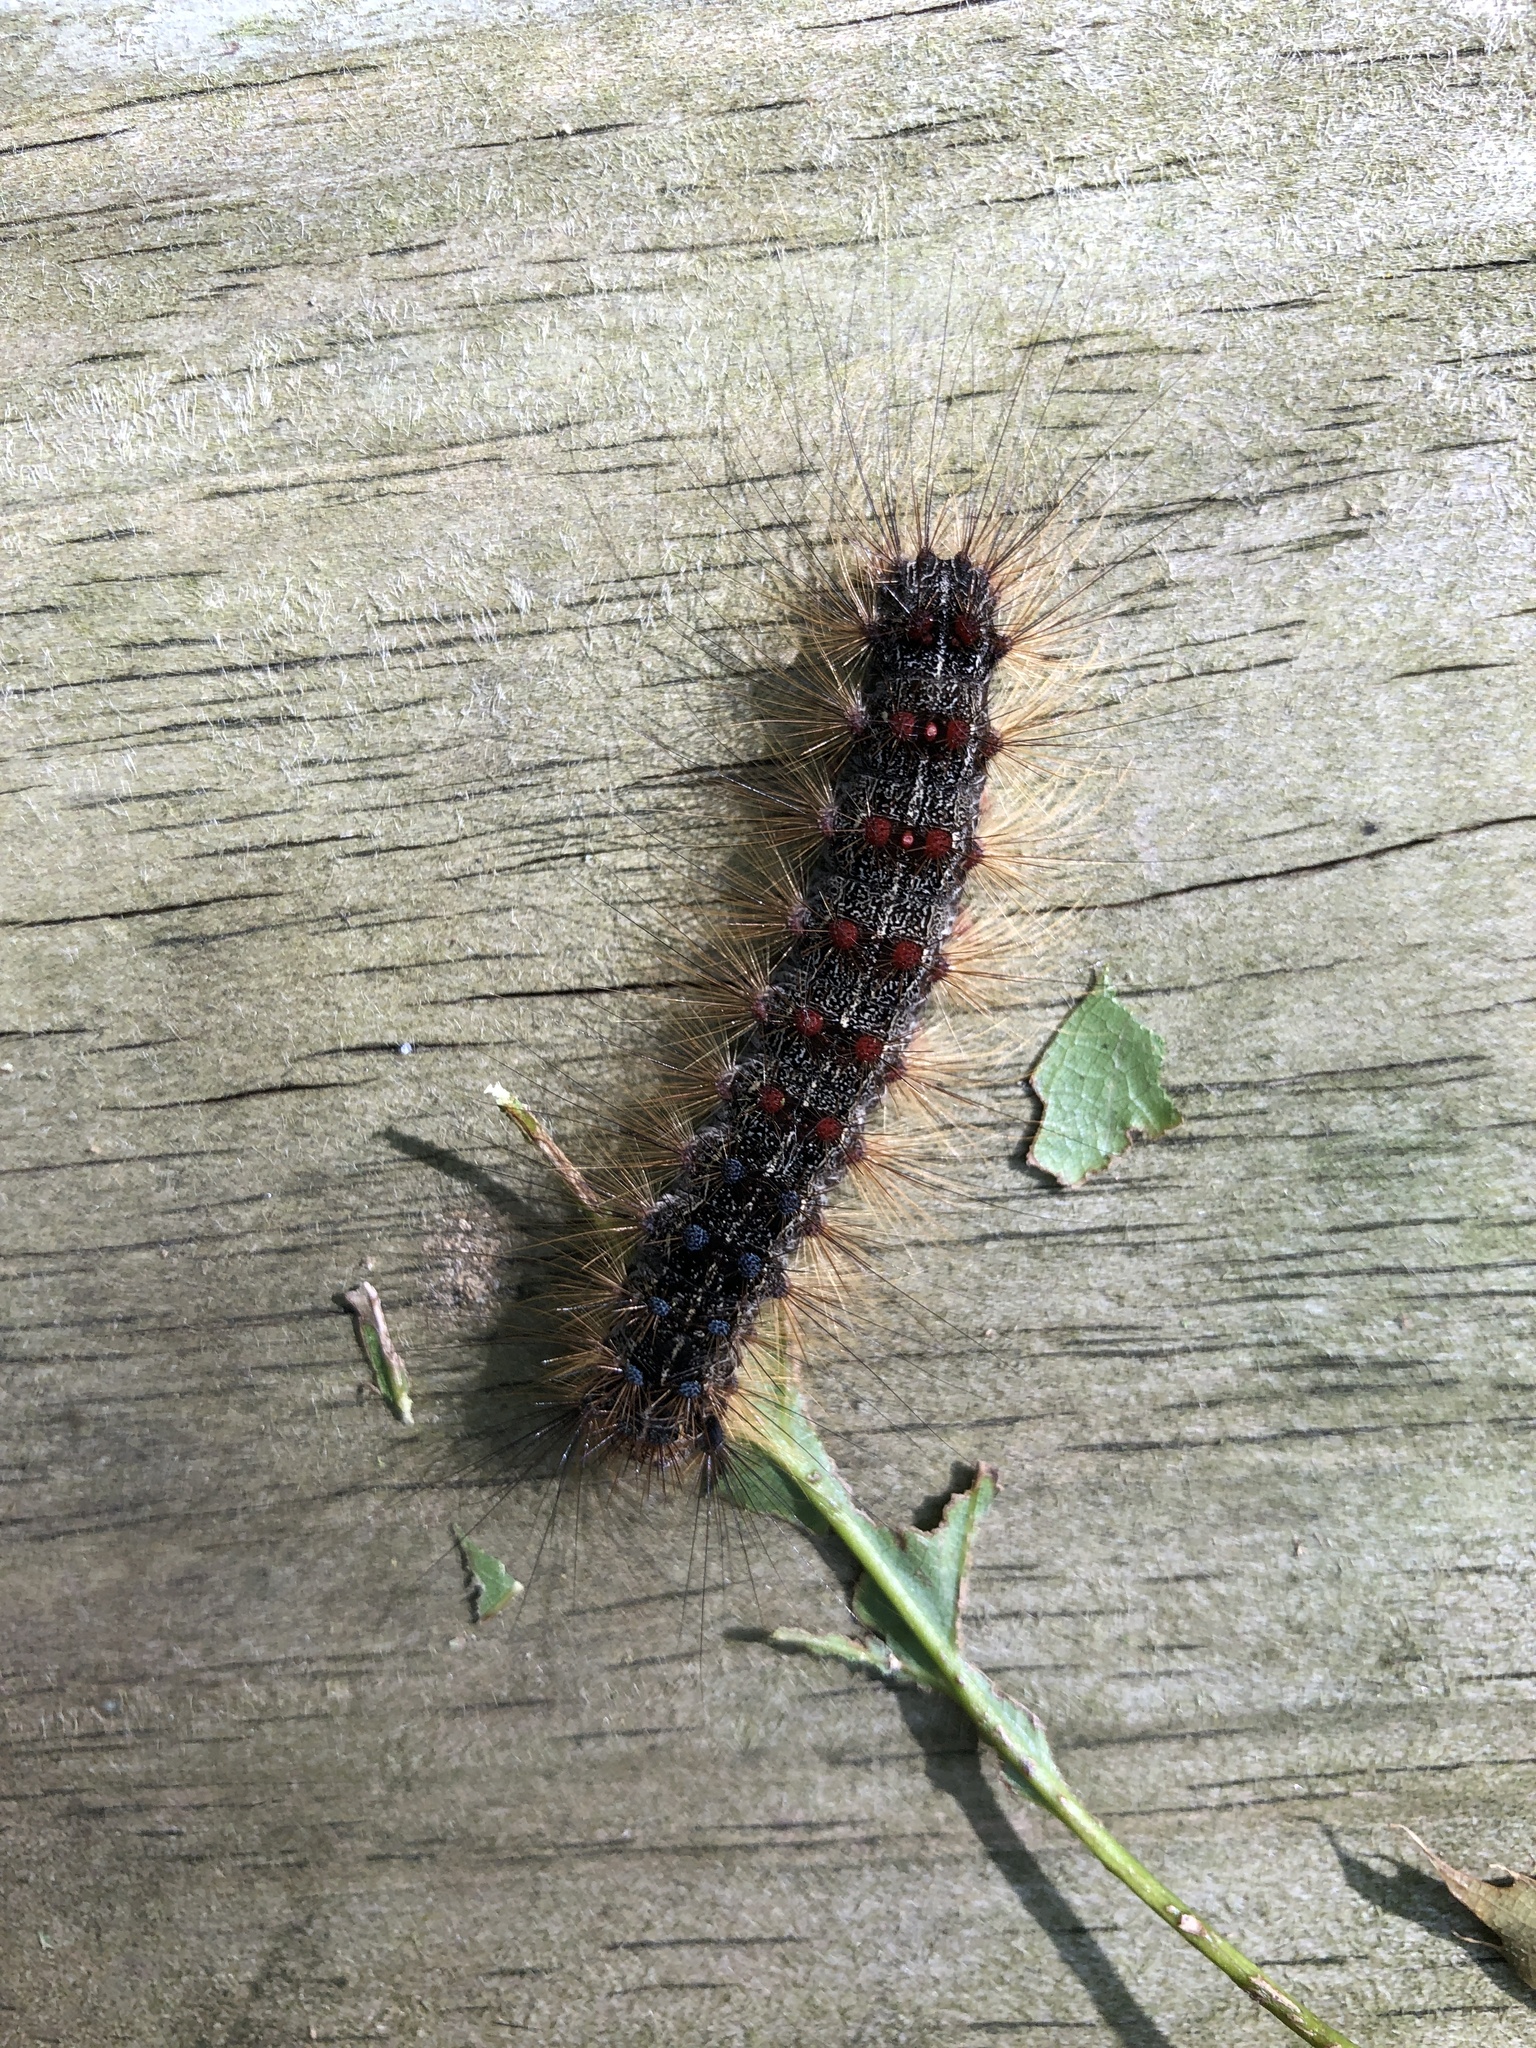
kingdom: Animalia
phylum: Arthropoda
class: Insecta
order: Lepidoptera
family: Erebidae
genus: Lymantria
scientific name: Lymantria dispar
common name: Gypsy moth
